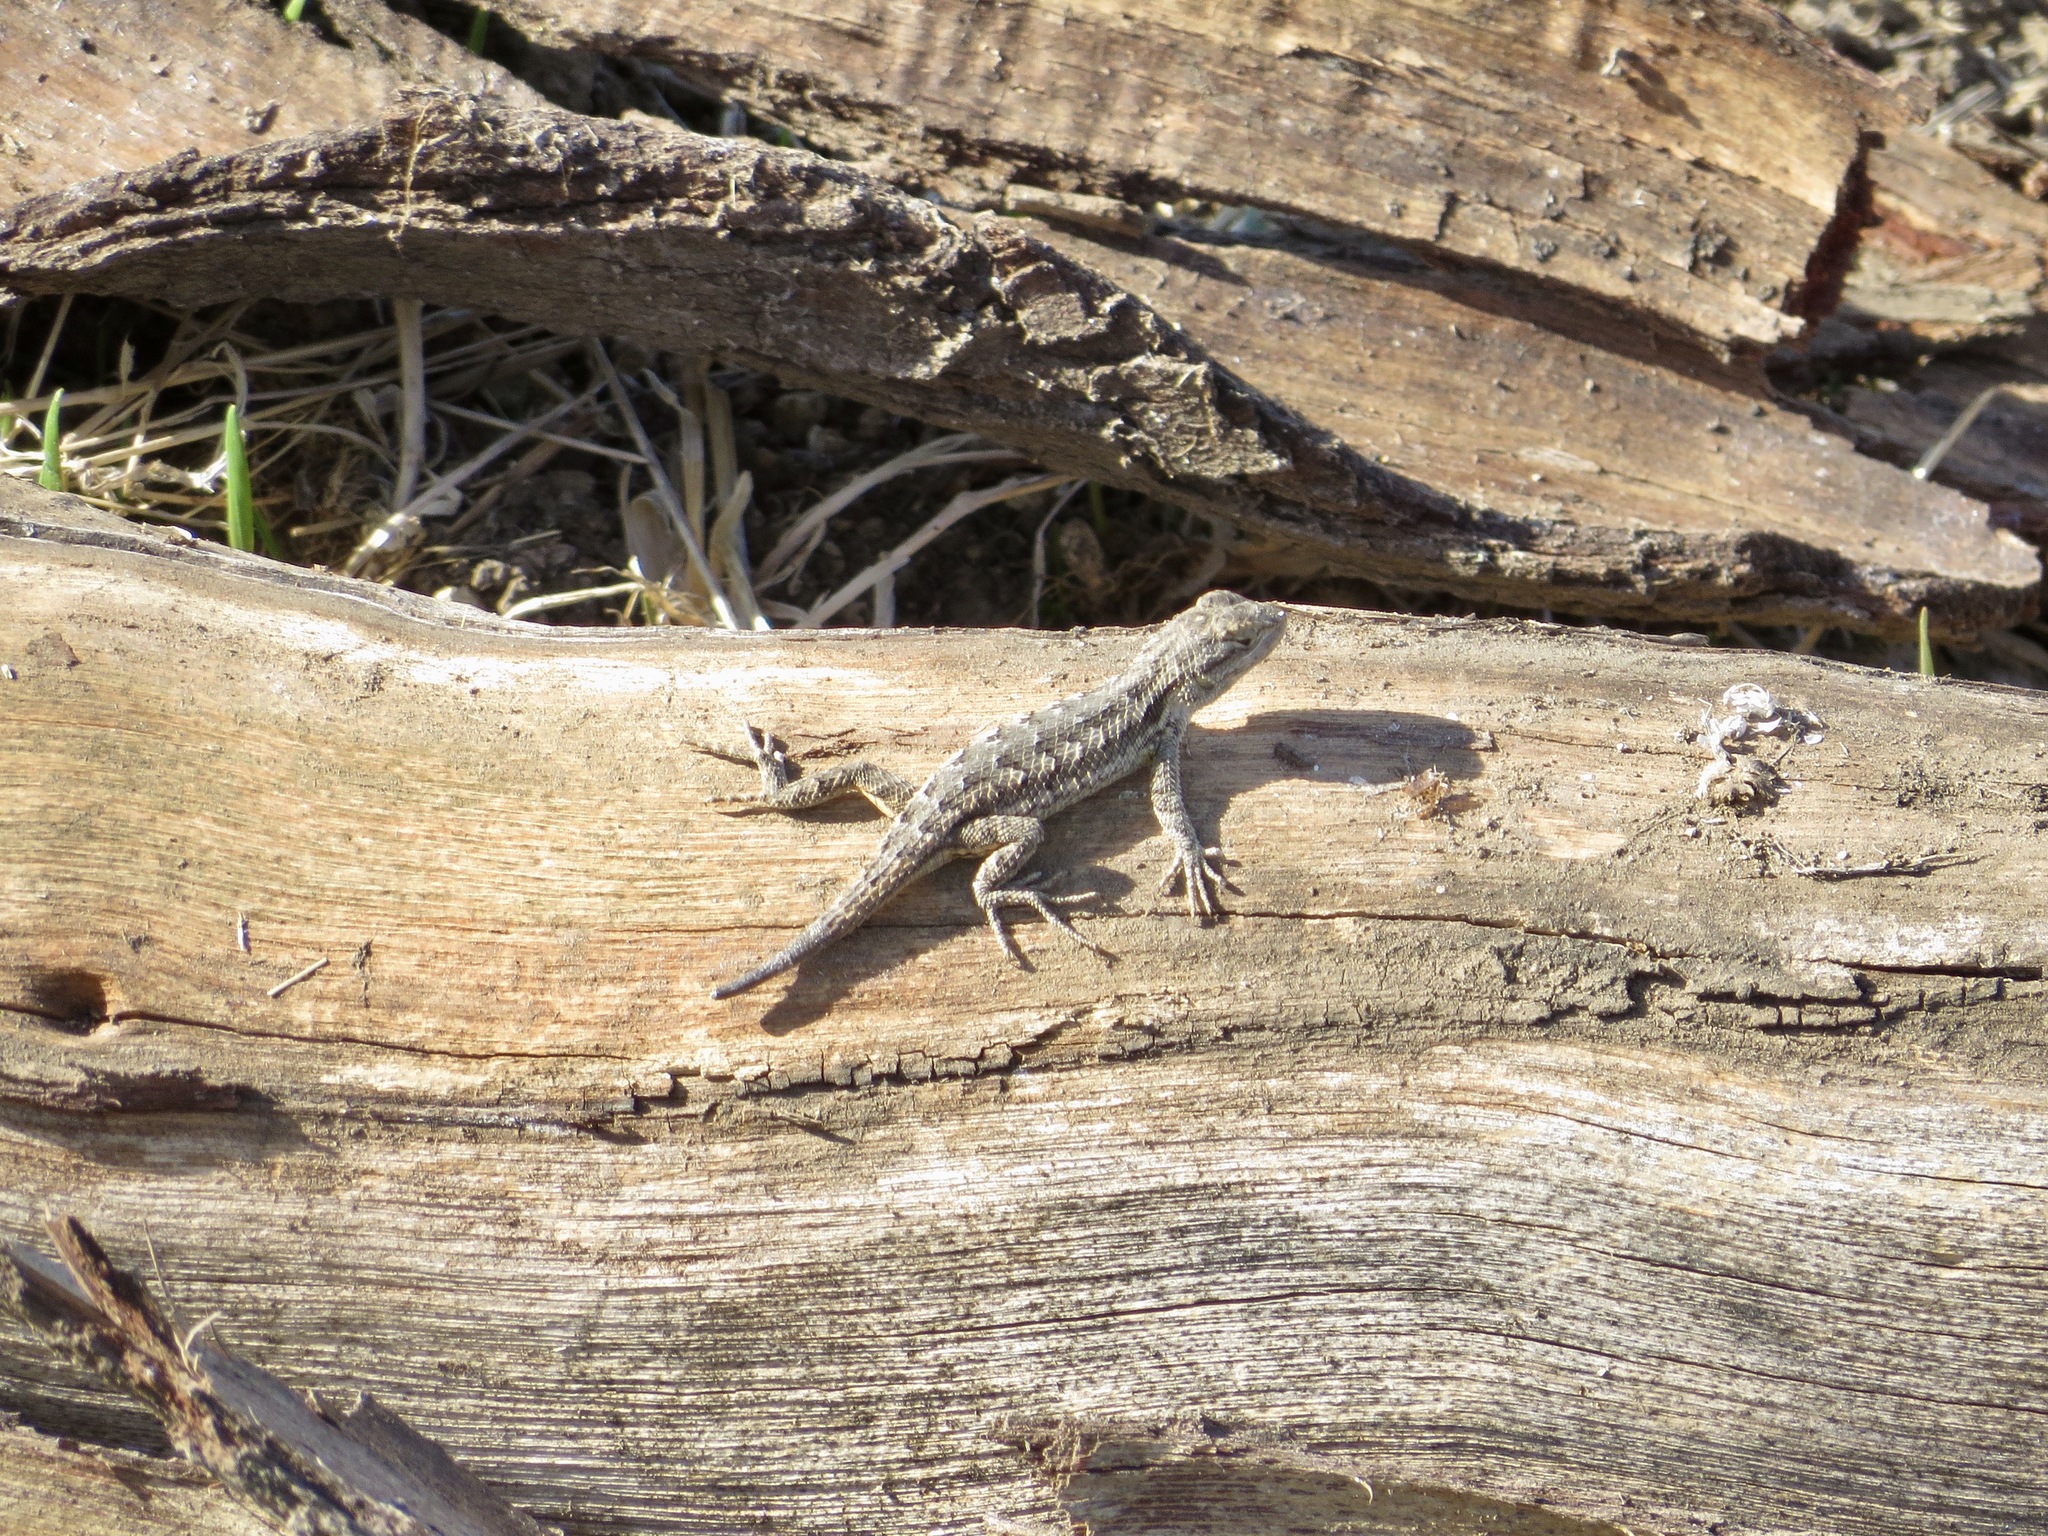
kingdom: Animalia
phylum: Chordata
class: Squamata
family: Phrynosomatidae
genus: Sceloporus
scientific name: Sceloporus occidentalis
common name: Western fence lizard
